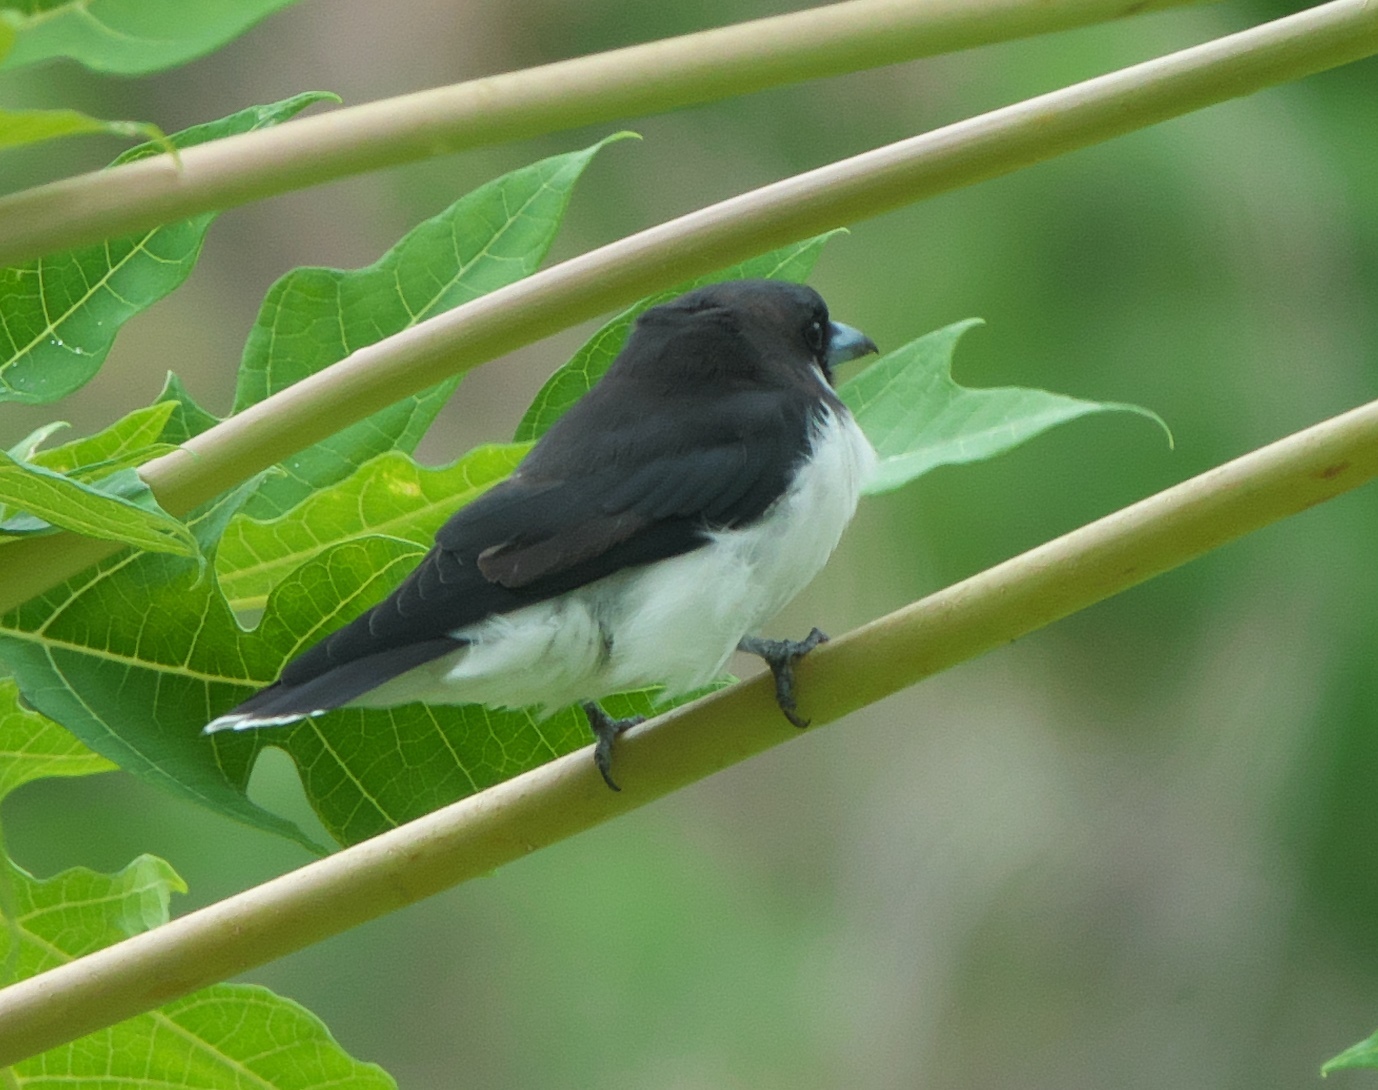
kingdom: Animalia
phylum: Chordata
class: Aves
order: Passeriformes
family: Artamidae
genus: Artamus
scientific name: Artamus mentalis
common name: Fiji woodswallow
